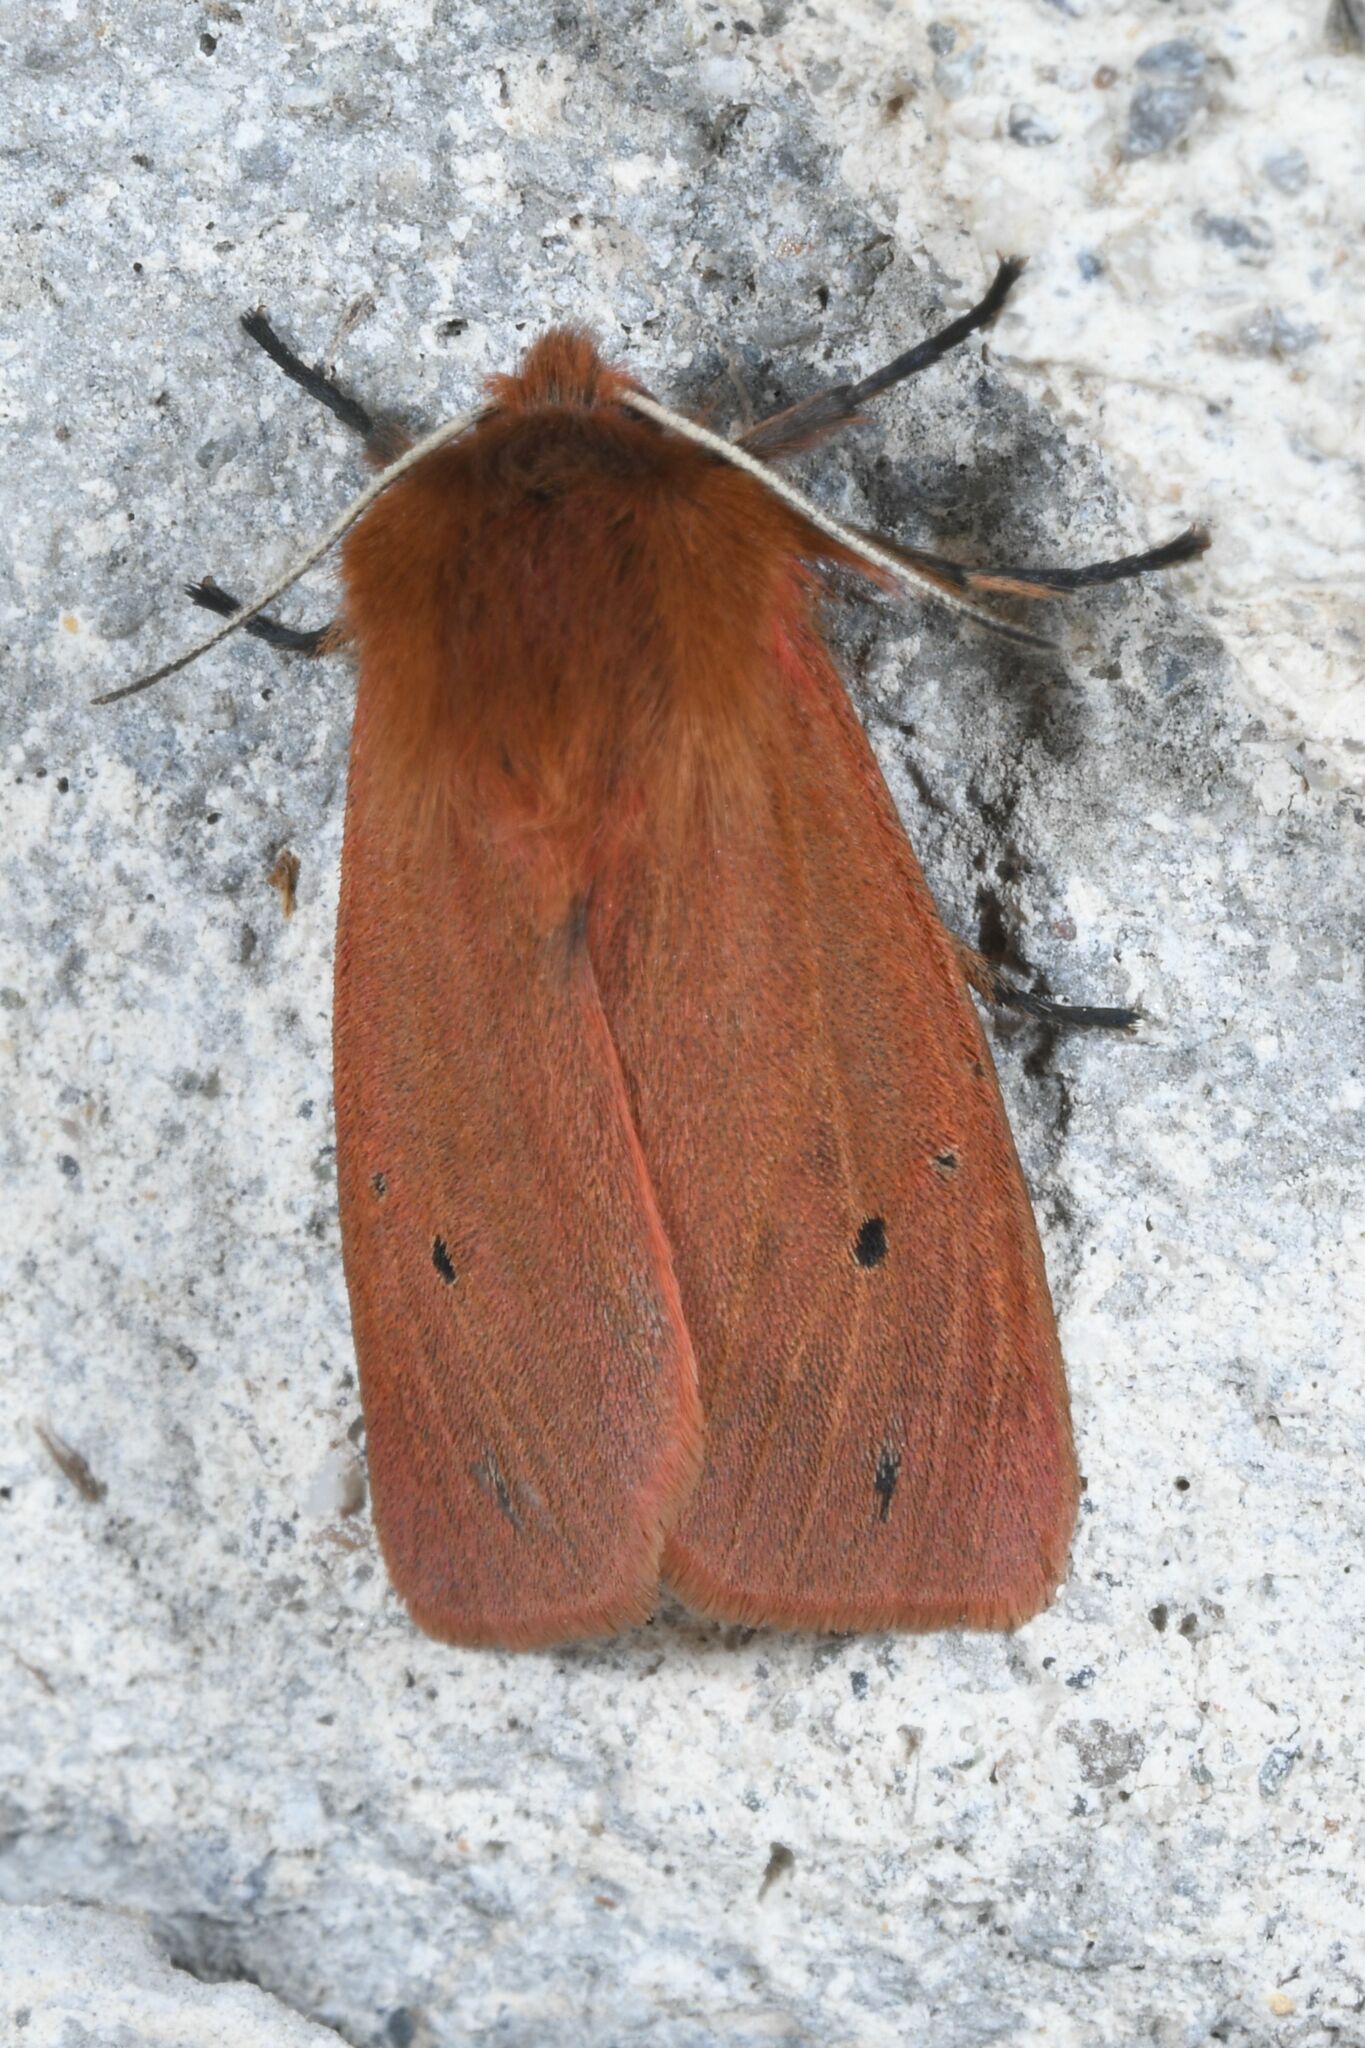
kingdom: Animalia
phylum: Arthropoda
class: Insecta
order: Lepidoptera
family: Erebidae
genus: Phragmatobia
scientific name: Phragmatobia fuliginosa
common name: Ruby tiger
